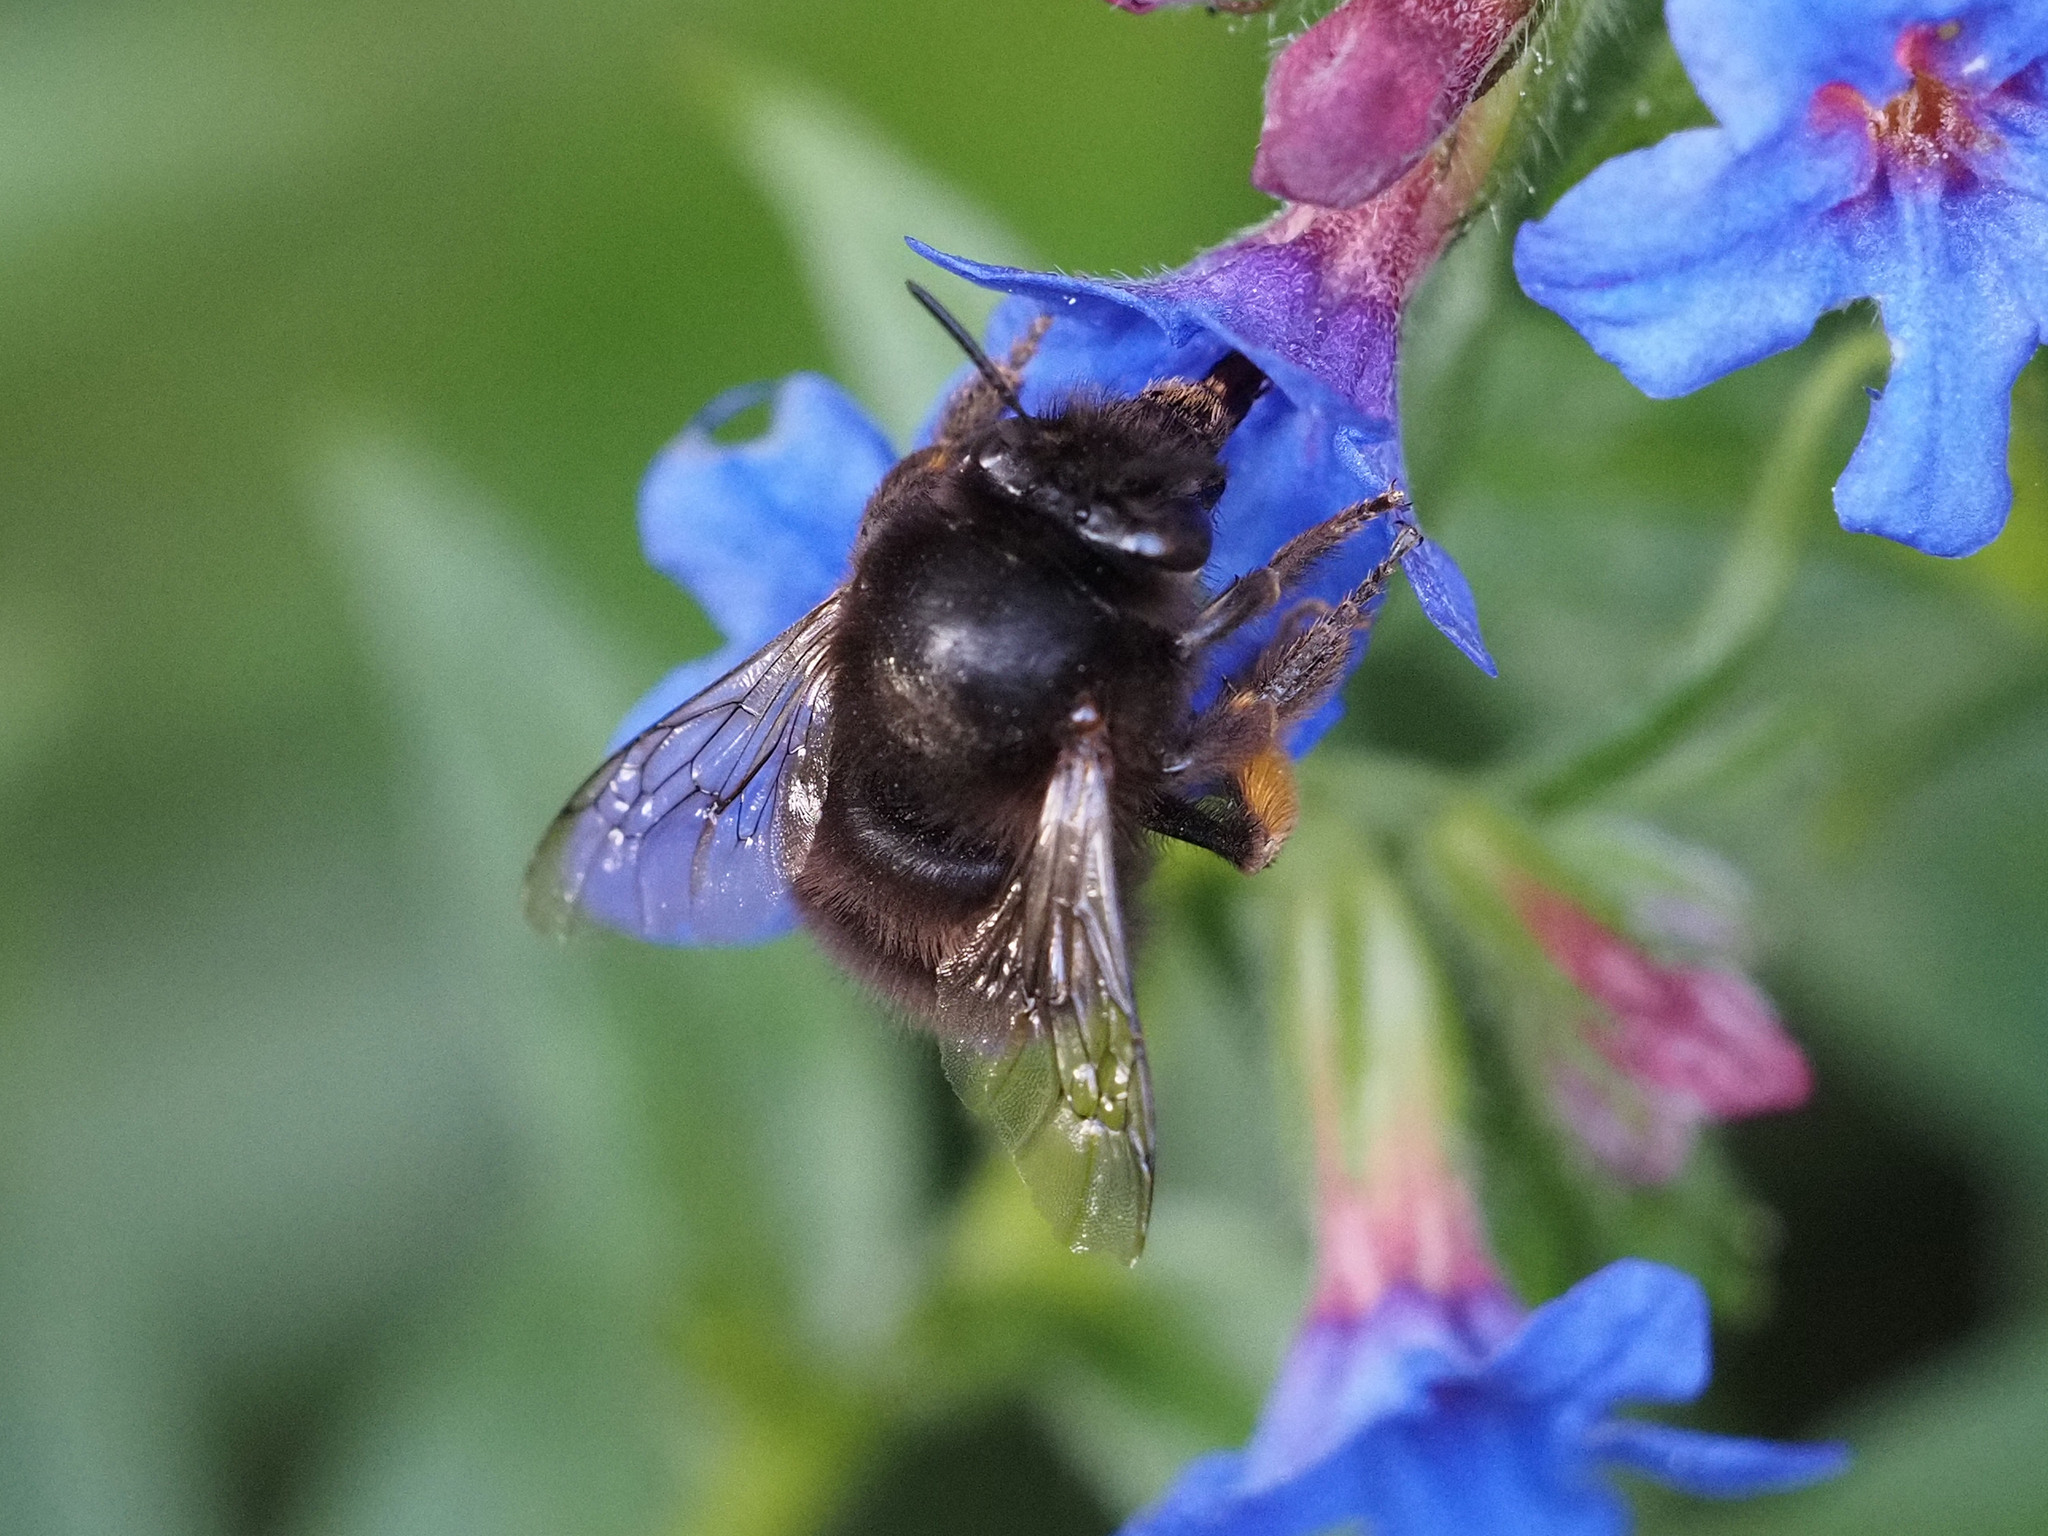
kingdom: Animalia
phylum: Arthropoda
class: Insecta
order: Hymenoptera
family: Apidae
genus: Anthophora
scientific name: Anthophora plumipes
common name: Hairy-footed flower bee
